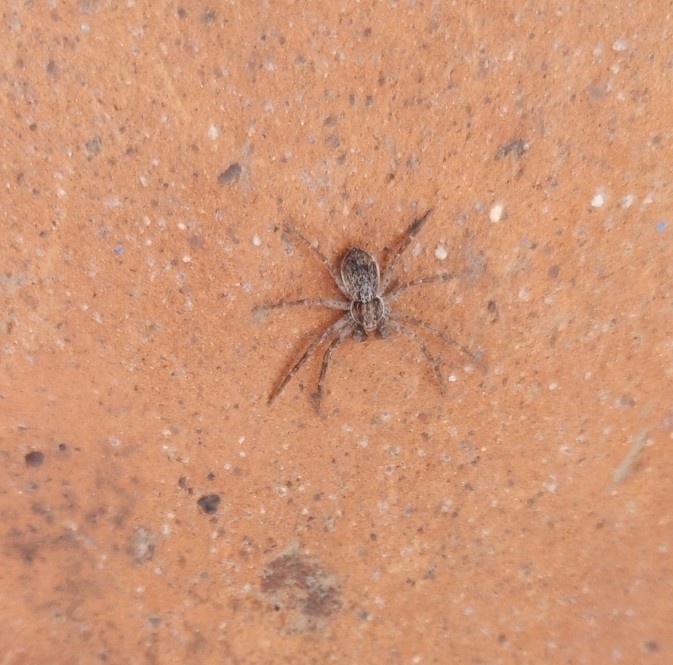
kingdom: Animalia
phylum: Arthropoda
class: Arachnida
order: Araneae
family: Philodromidae
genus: Philodromus
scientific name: Philodromus dispar
